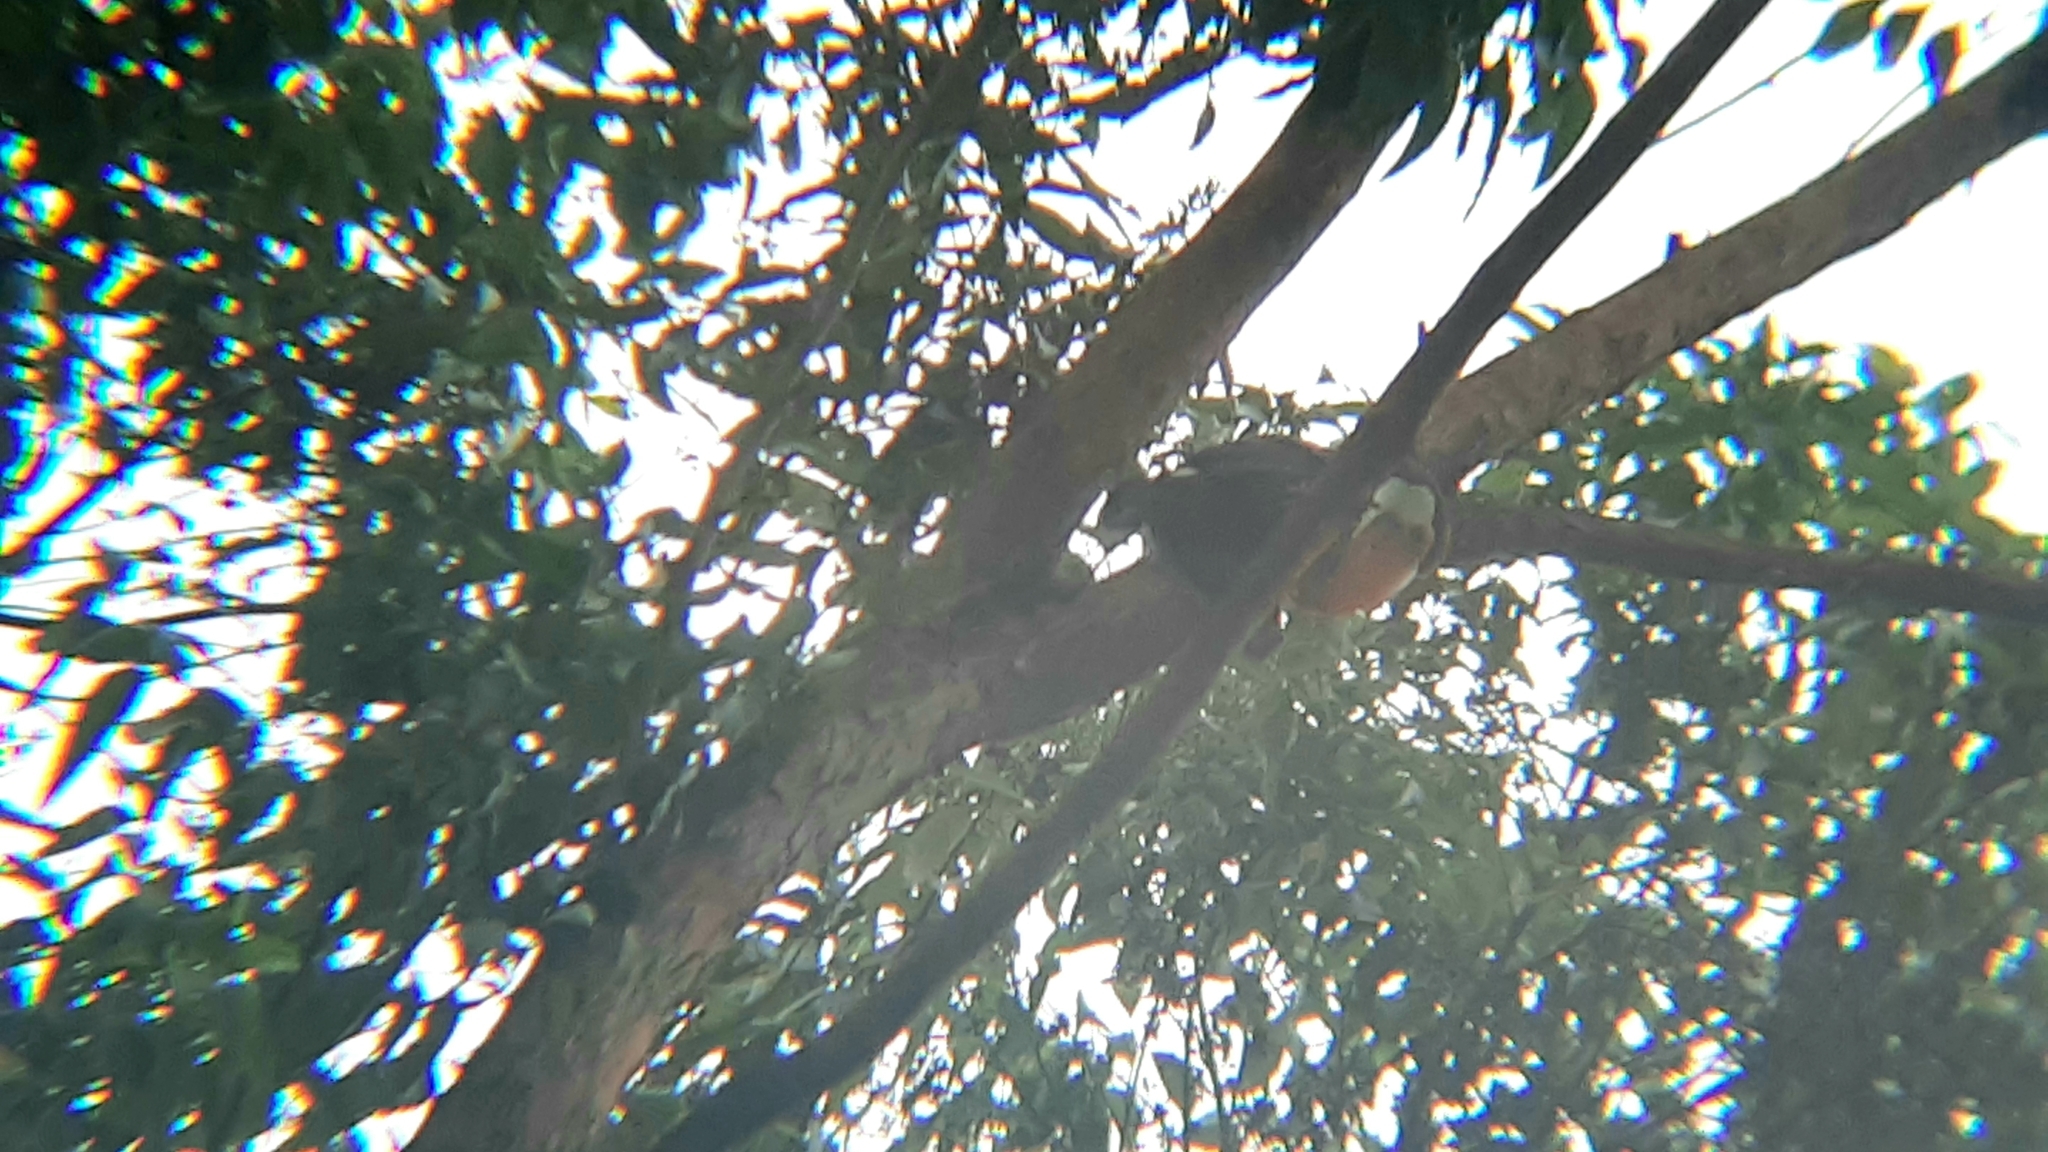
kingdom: Animalia
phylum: Chordata
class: Aves
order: Piciformes
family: Ramphastidae
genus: Ramphastos
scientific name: Ramphastos toco
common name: Toco toucan
